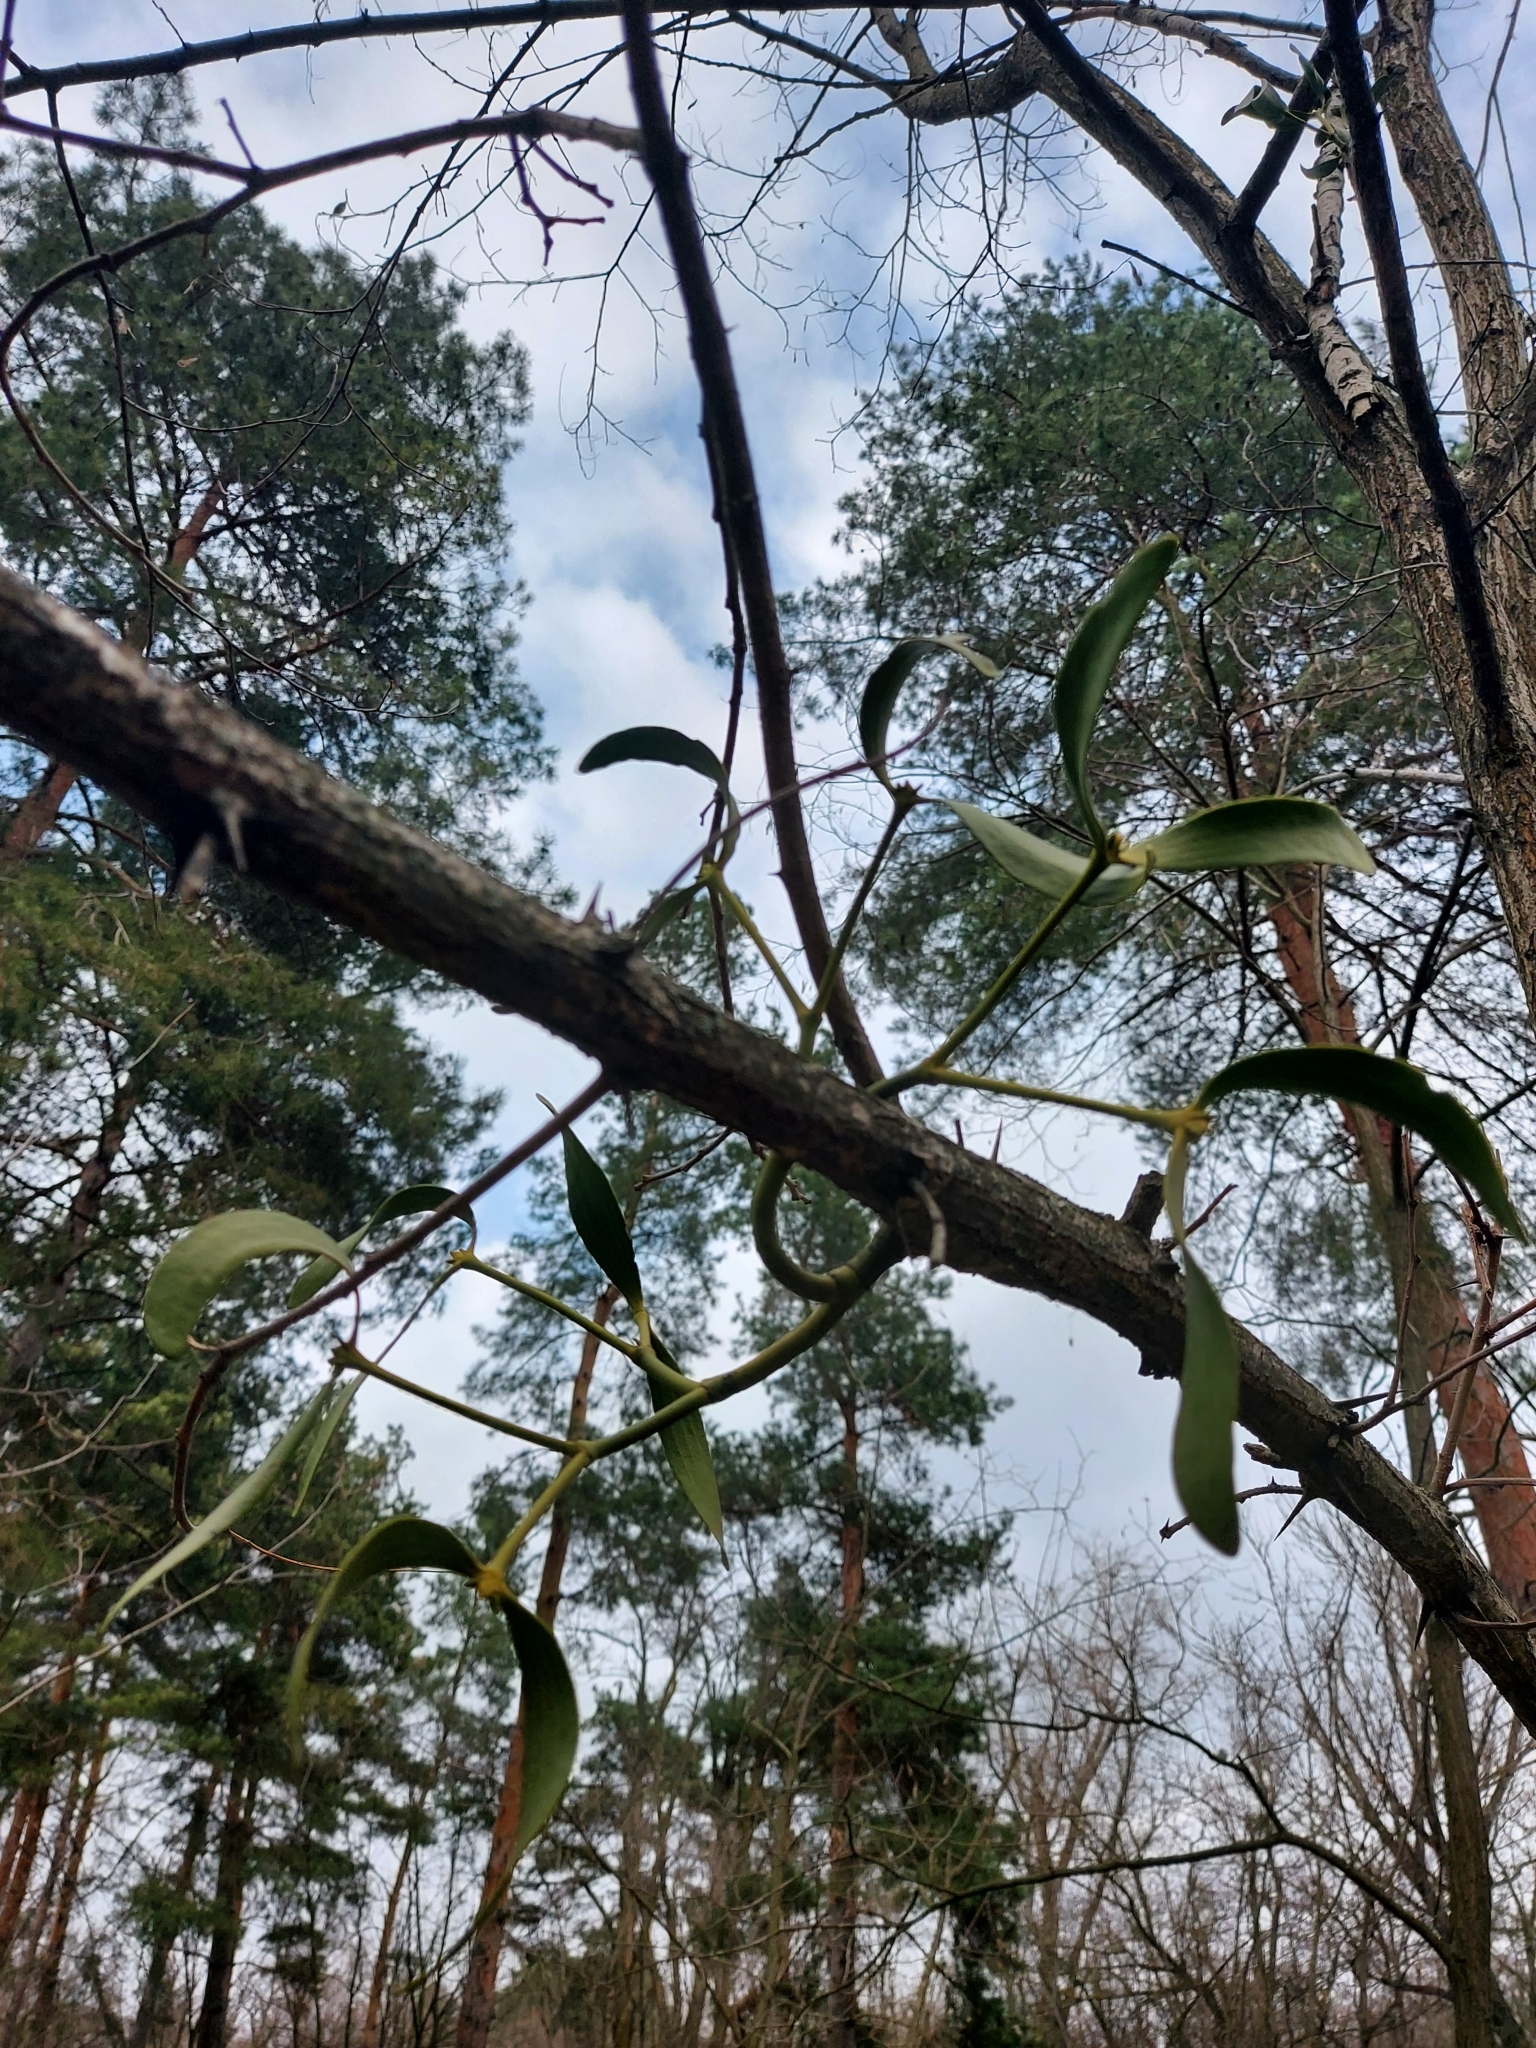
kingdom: Plantae
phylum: Tracheophyta
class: Magnoliopsida
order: Santalales
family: Viscaceae
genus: Viscum
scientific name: Viscum album
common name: Mistletoe
